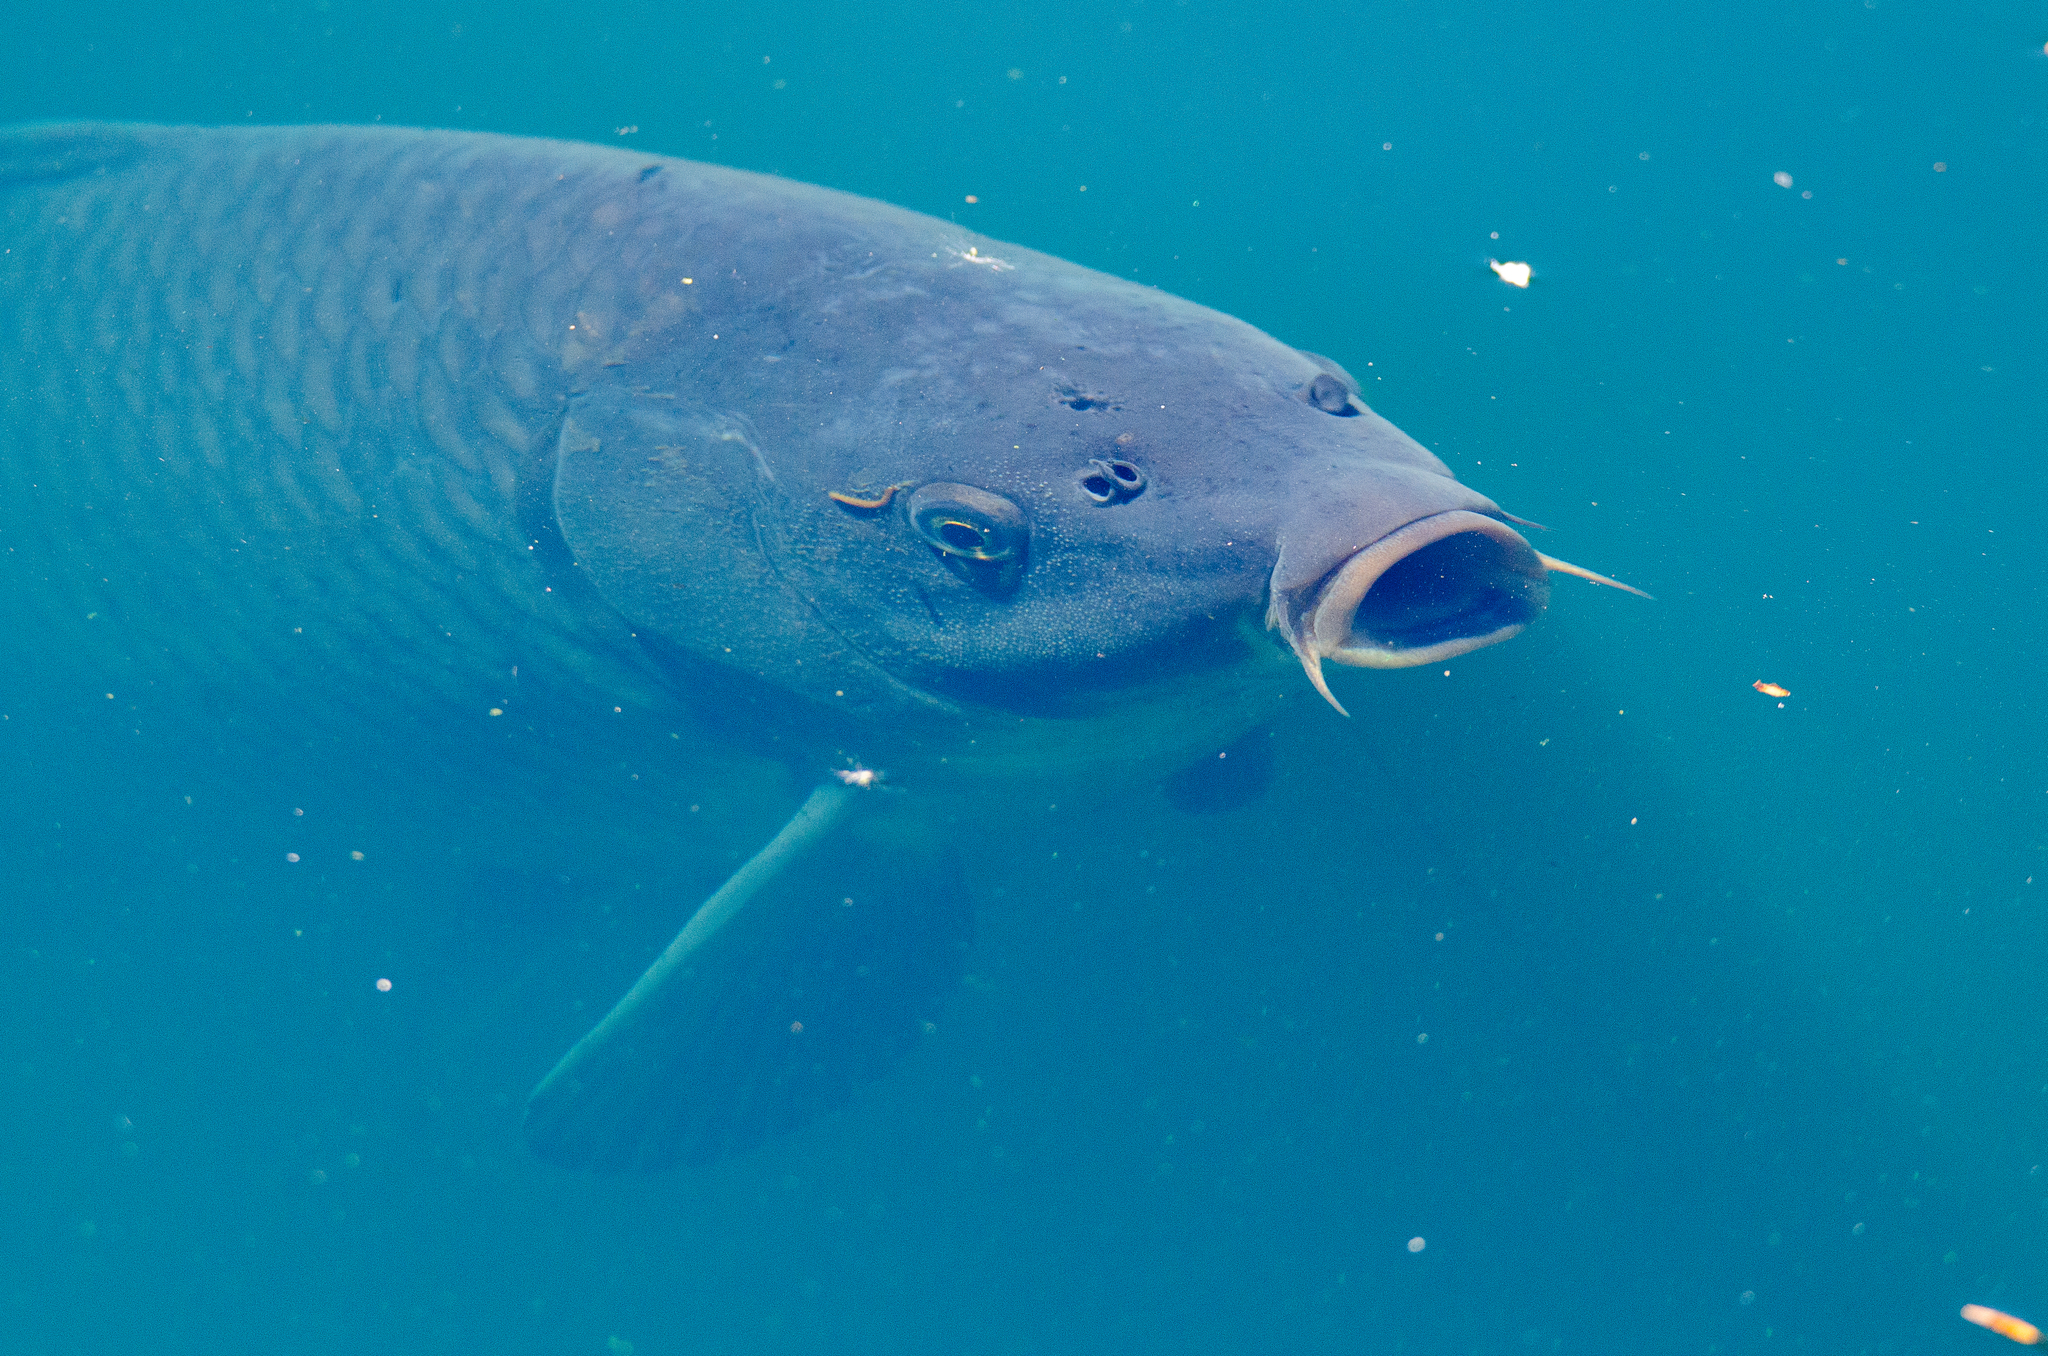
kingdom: Animalia
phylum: Chordata
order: Cypriniformes
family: Cyprinidae
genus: Cyprinus
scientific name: Cyprinus carpio
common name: Common carp
